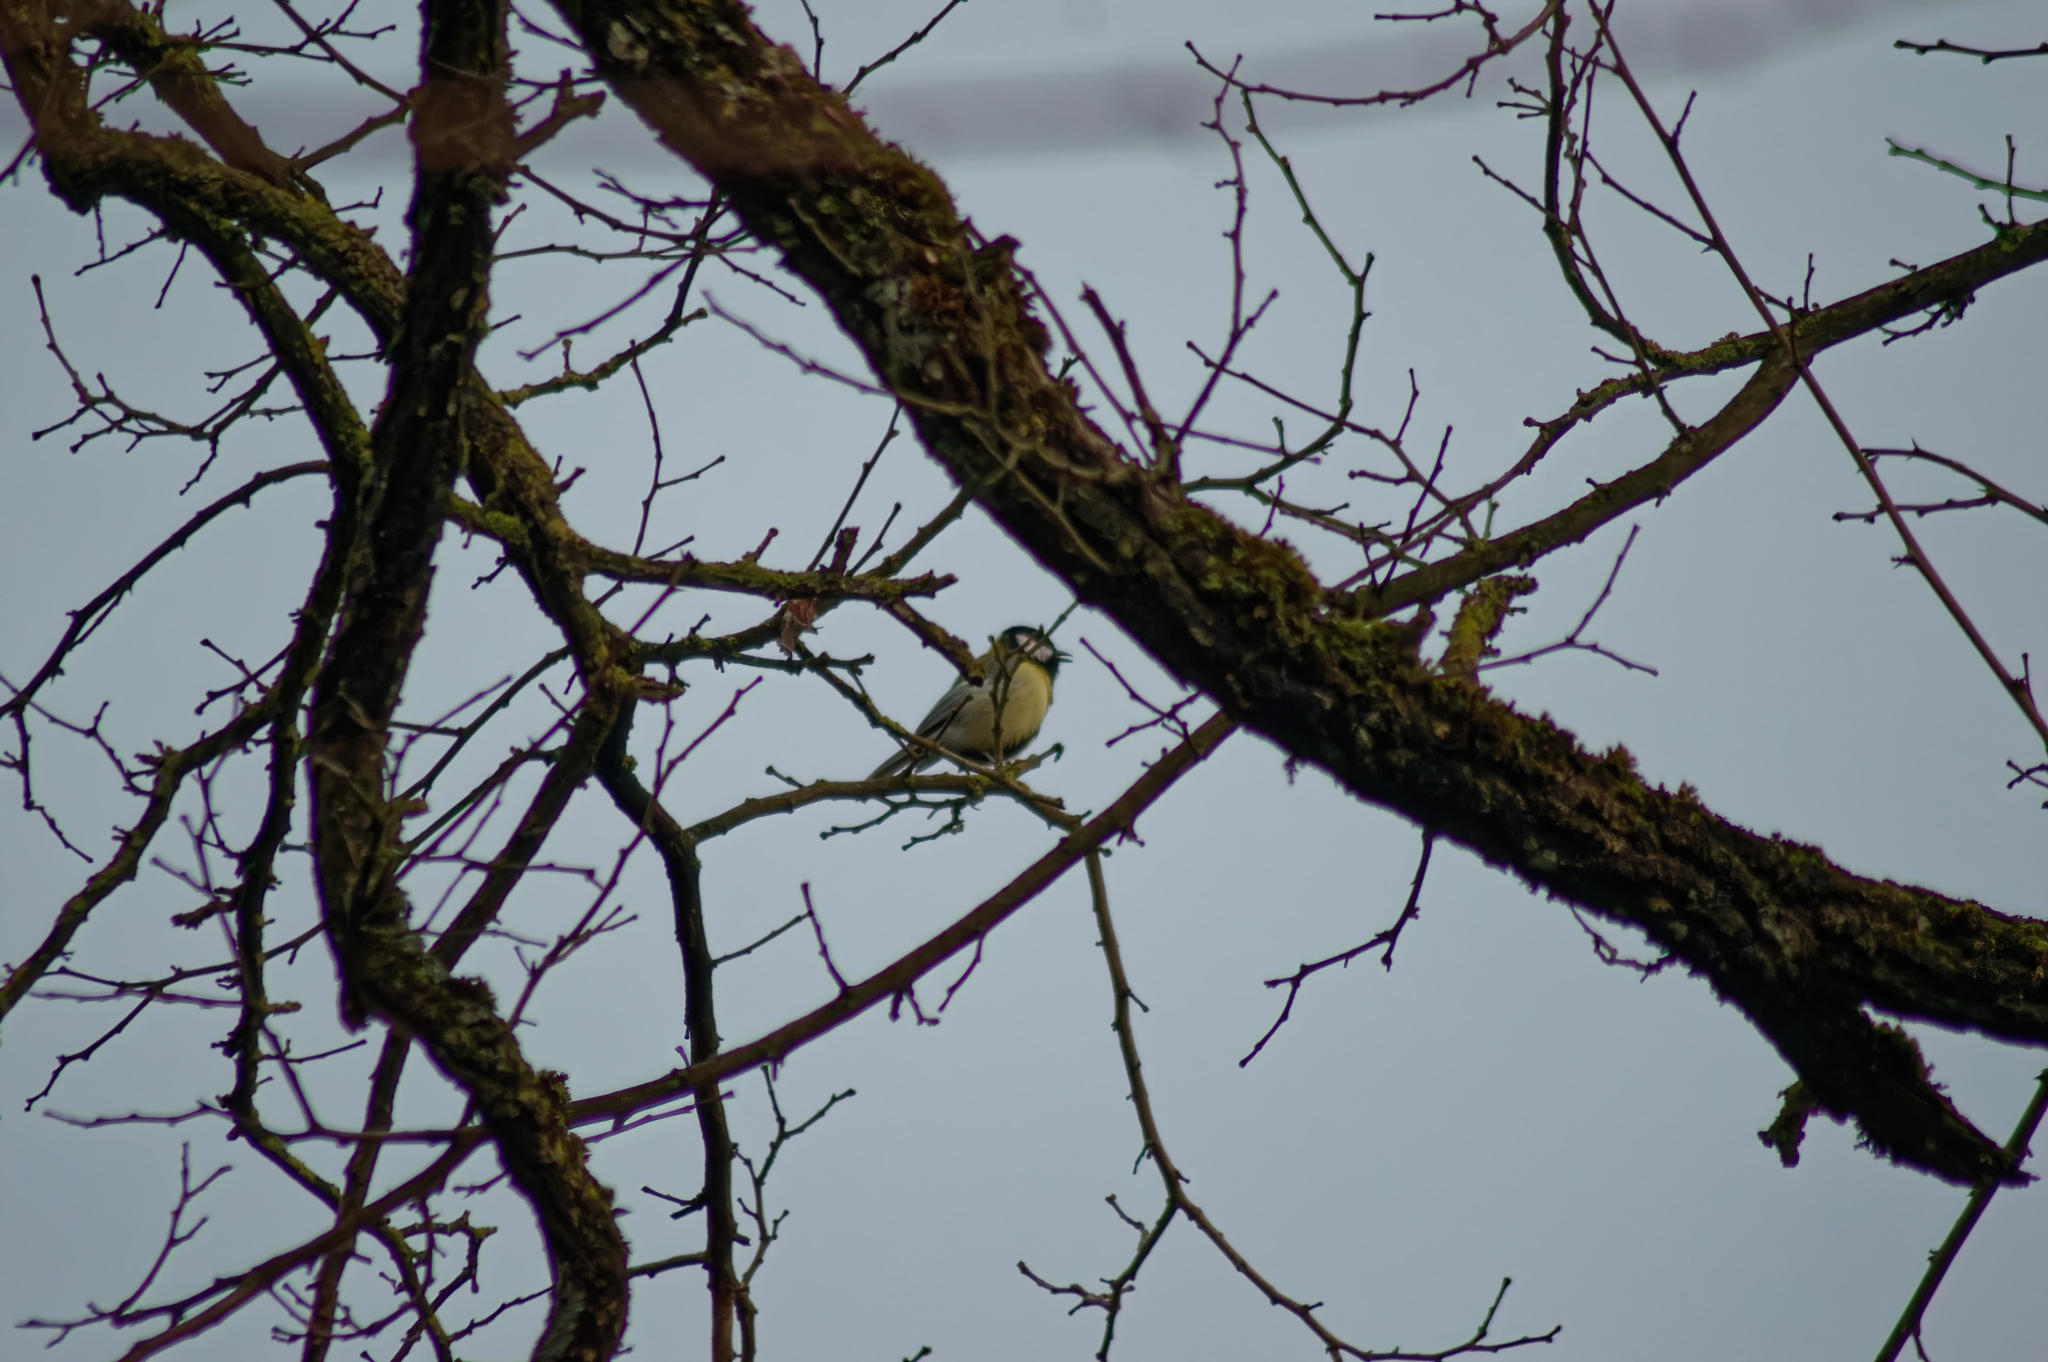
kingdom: Animalia
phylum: Chordata
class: Aves
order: Passeriformes
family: Paridae
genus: Parus
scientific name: Parus major
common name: Great tit
